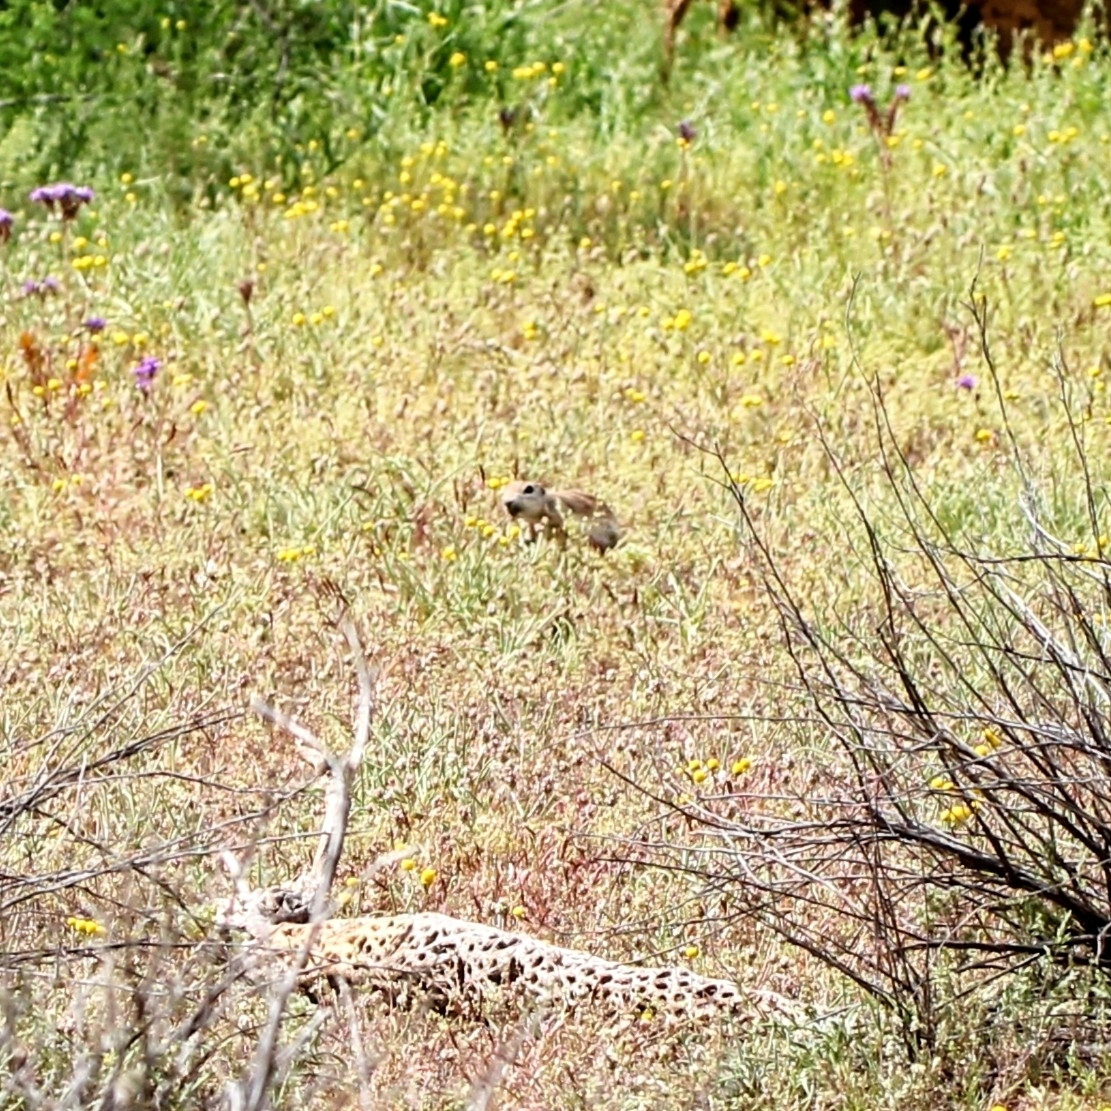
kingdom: Animalia
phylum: Chordata
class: Mammalia
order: Rodentia
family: Sciuridae
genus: Xerospermophilus
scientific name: Xerospermophilus tereticaudus
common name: Round-tailed ground squirrel
